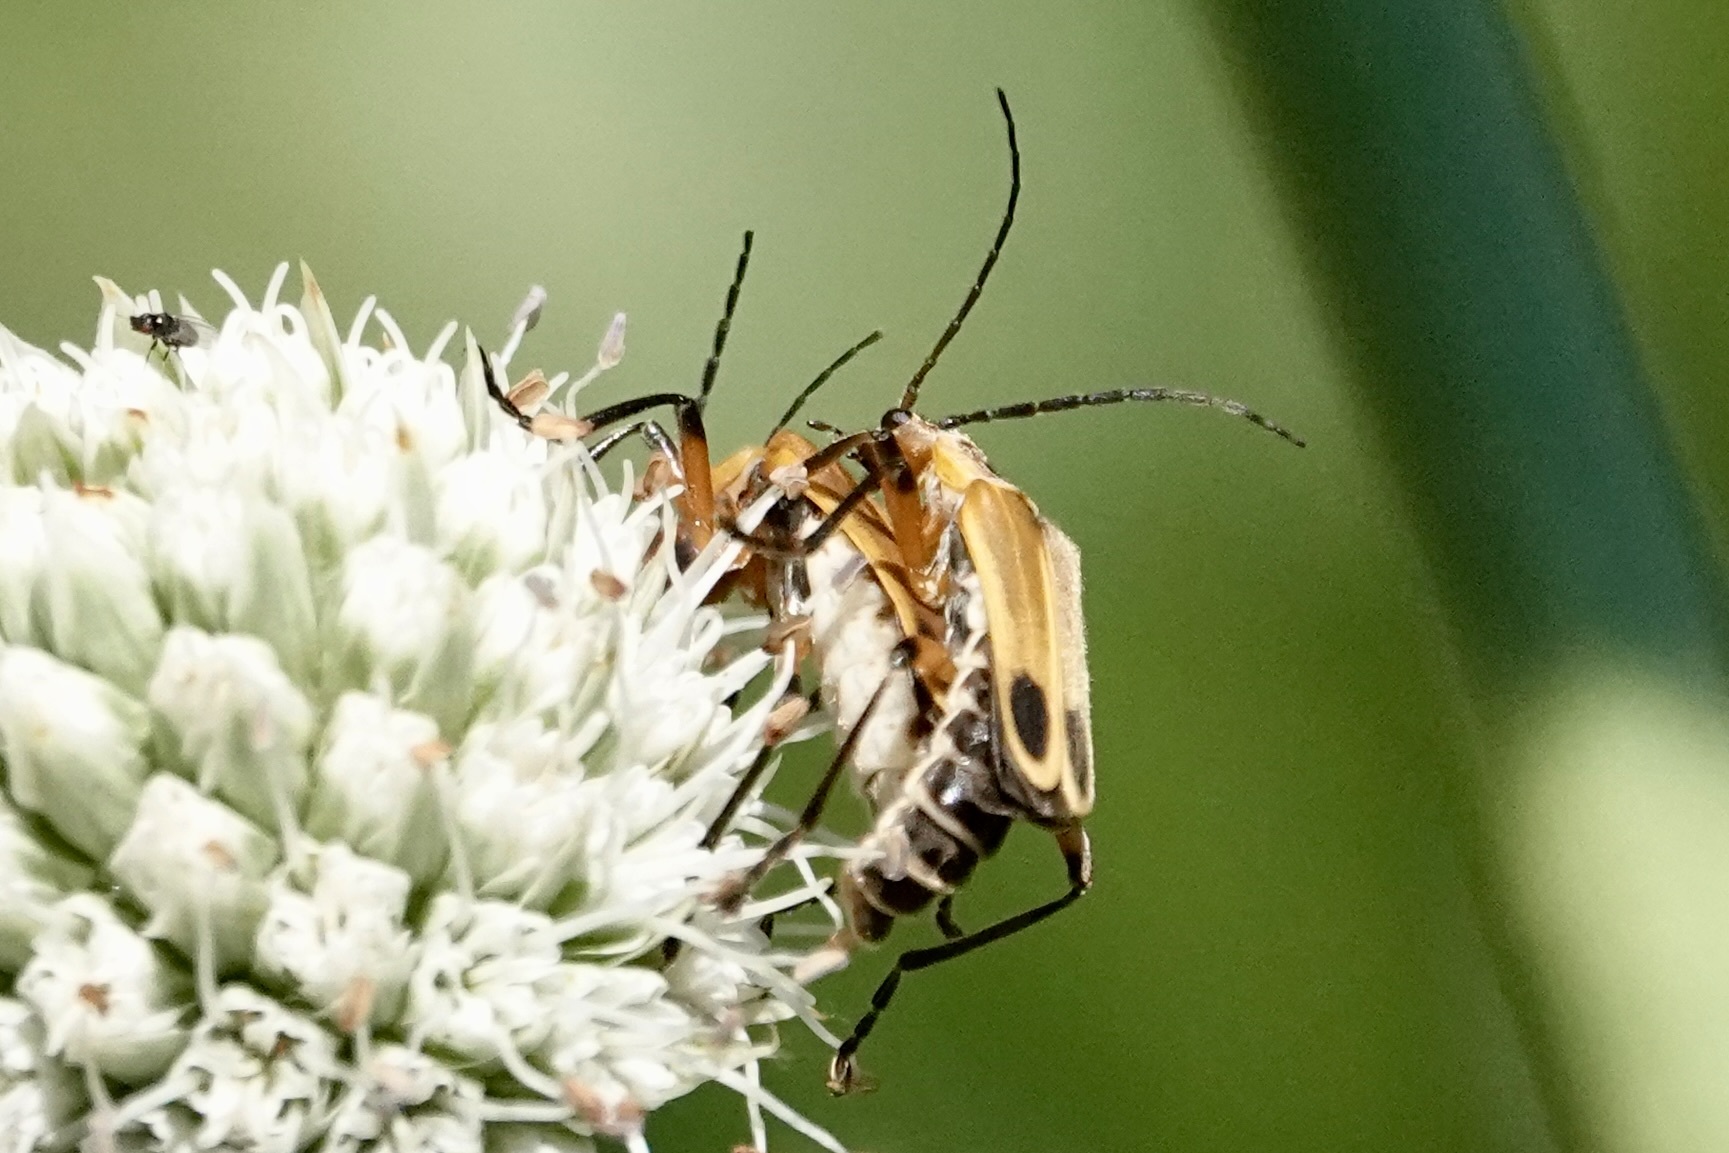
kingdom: Animalia
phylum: Arthropoda
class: Insecta
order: Coleoptera
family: Cantharidae
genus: Chauliognathus
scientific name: Chauliognathus marginatus
